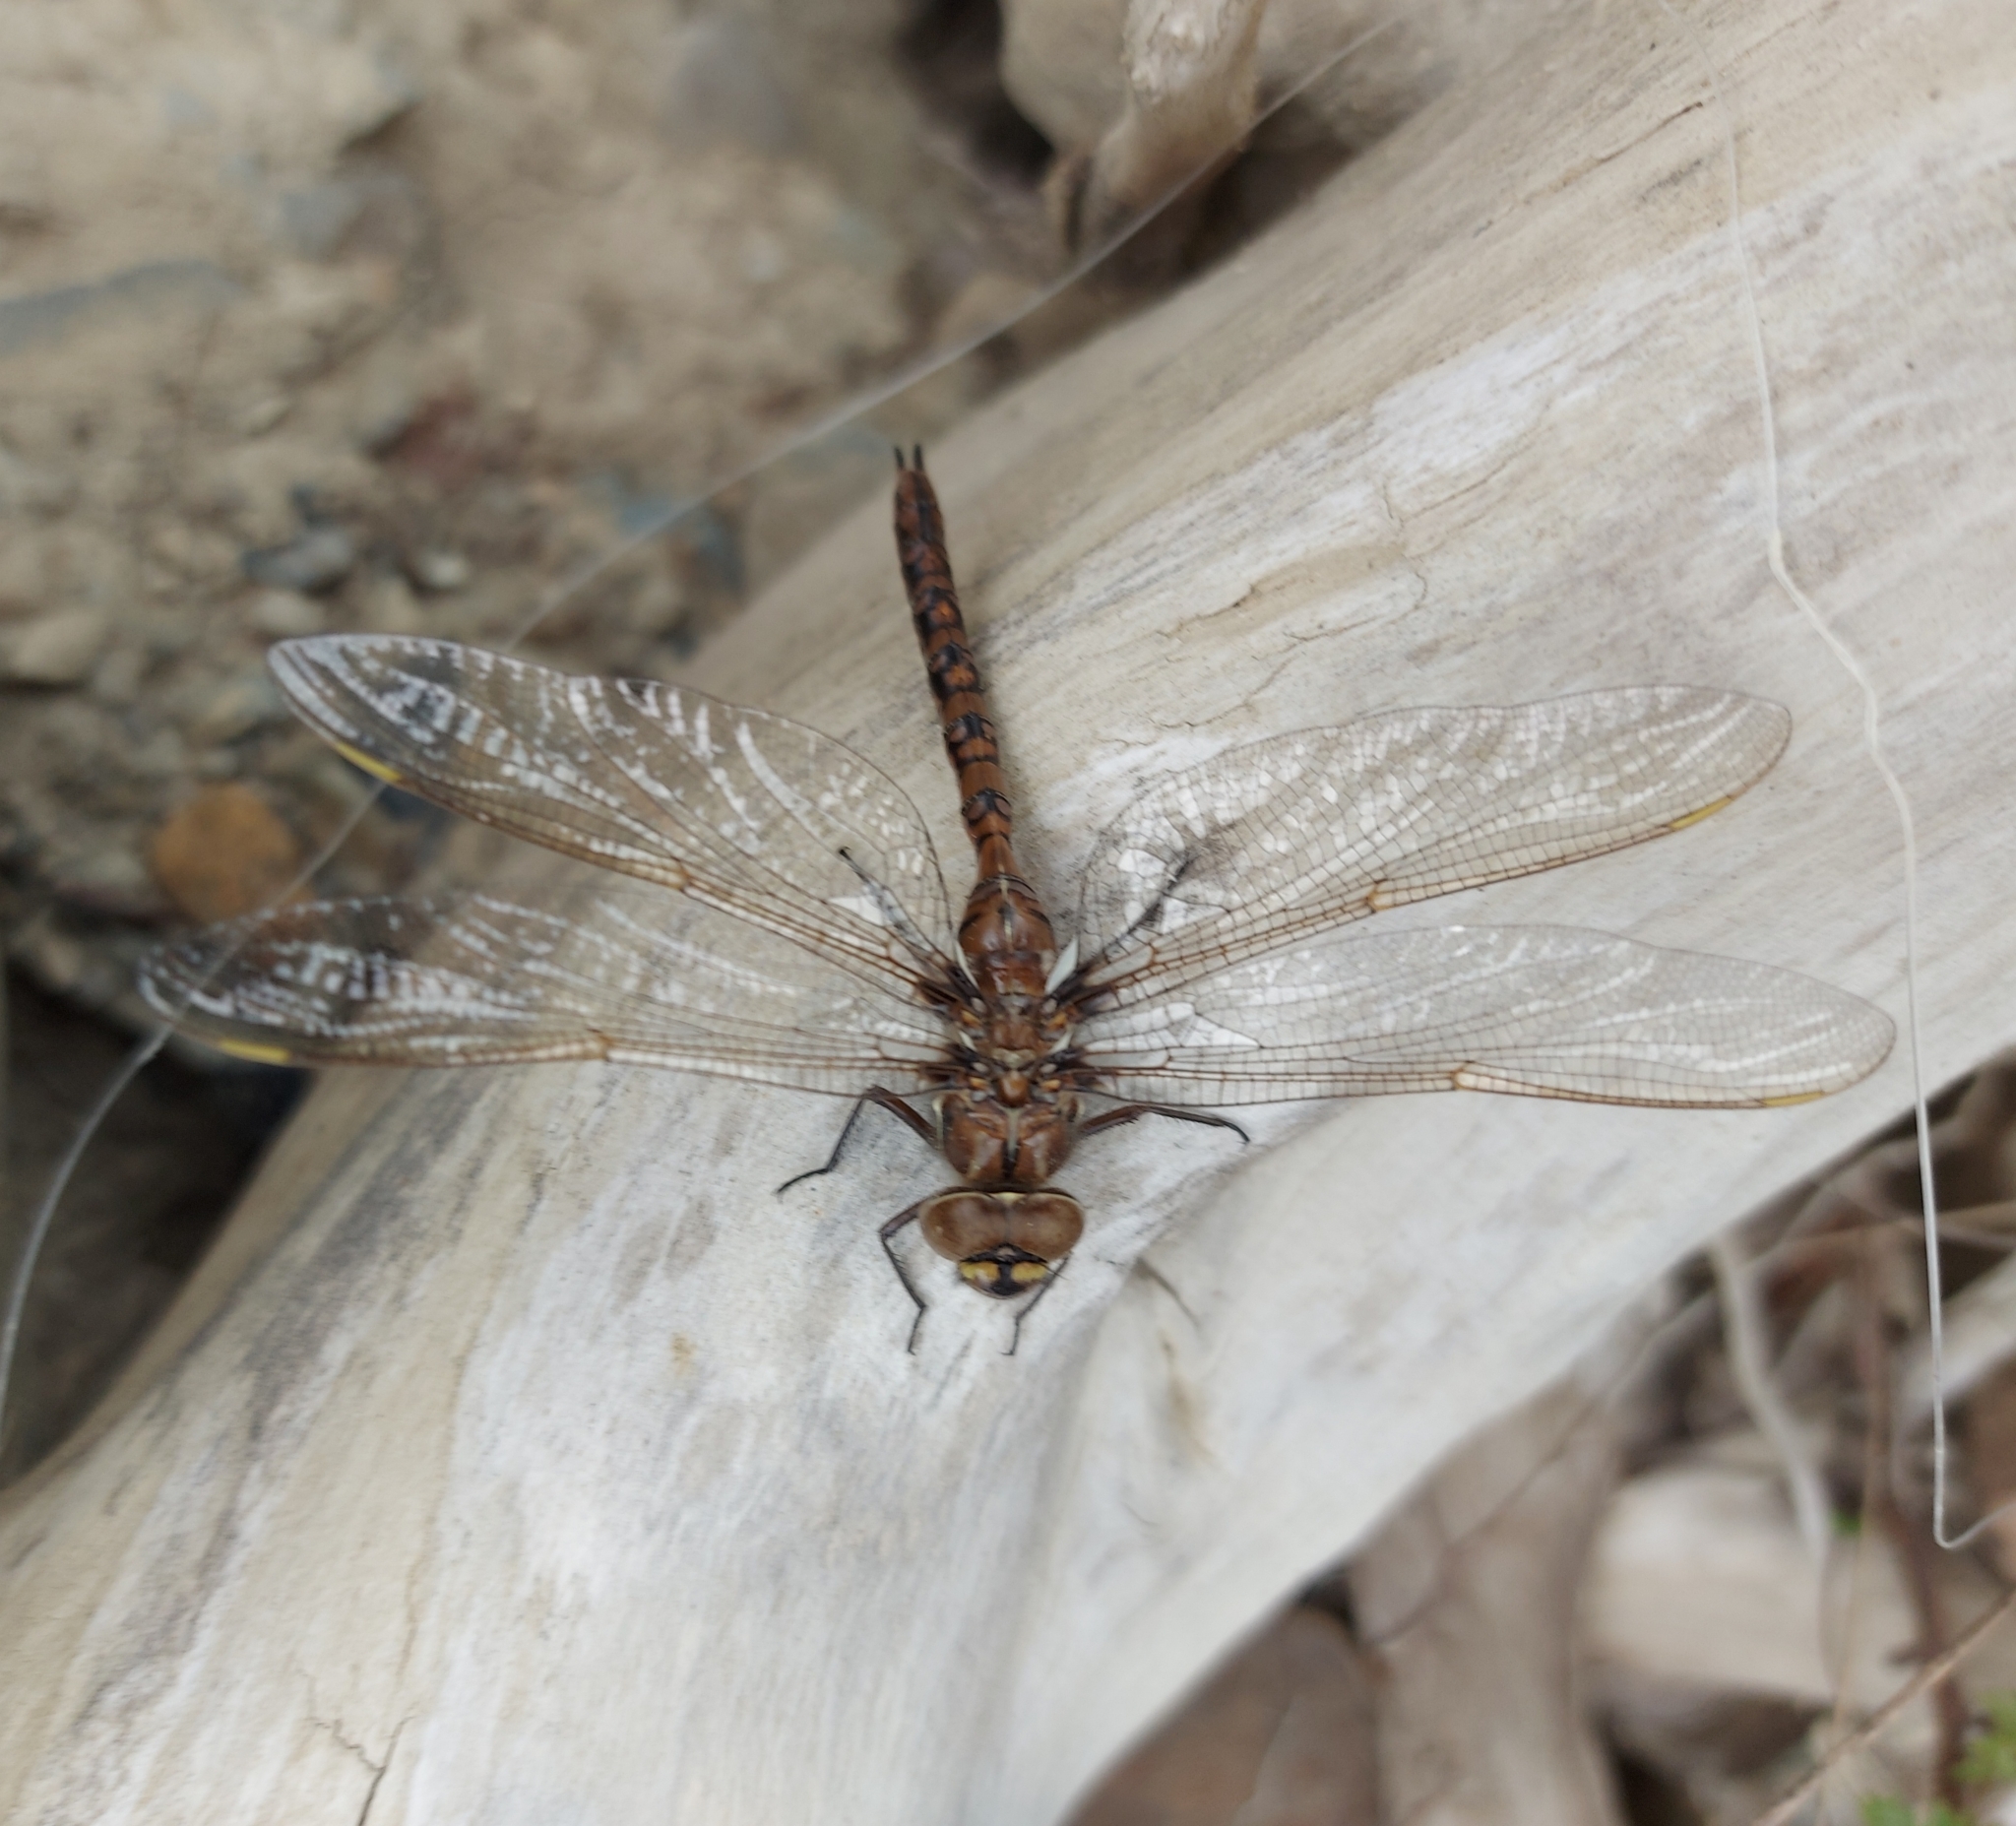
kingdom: Animalia
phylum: Arthropoda
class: Insecta
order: Odonata
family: Aeshnidae
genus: Basiaeschna
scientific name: Basiaeschna janata
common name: Springtime darner
